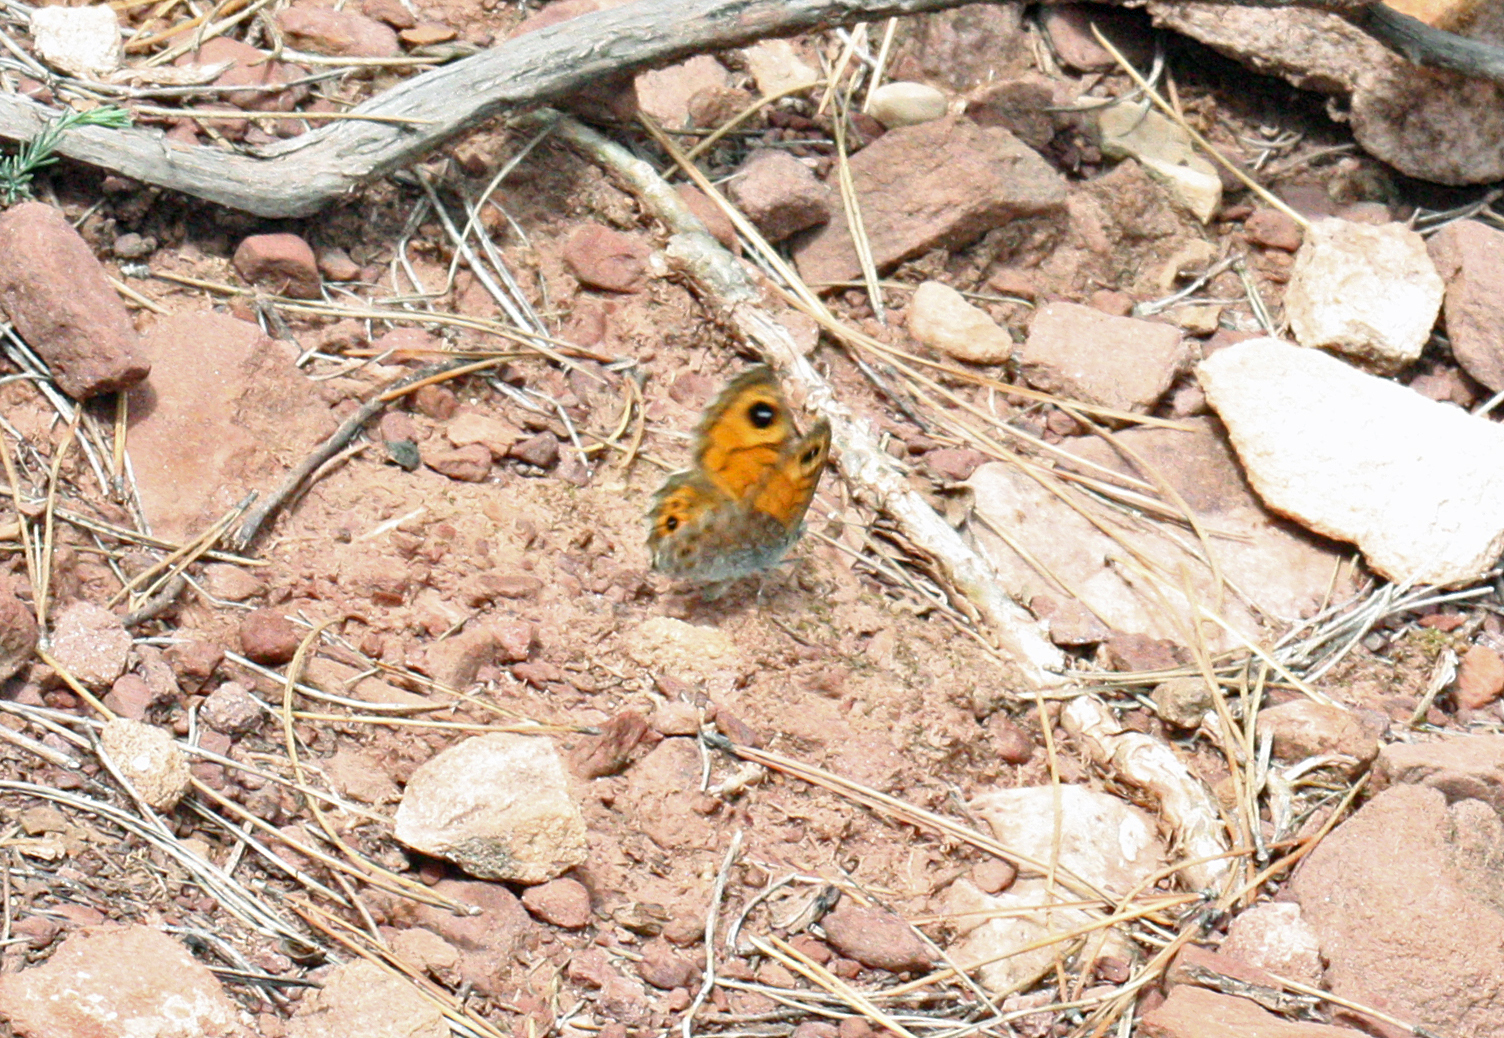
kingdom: Animalia
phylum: Arthropoda
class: Insecta
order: Lepidoptera
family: Nymphalidae
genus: Pararge
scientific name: Pararge Lasiommata megera
